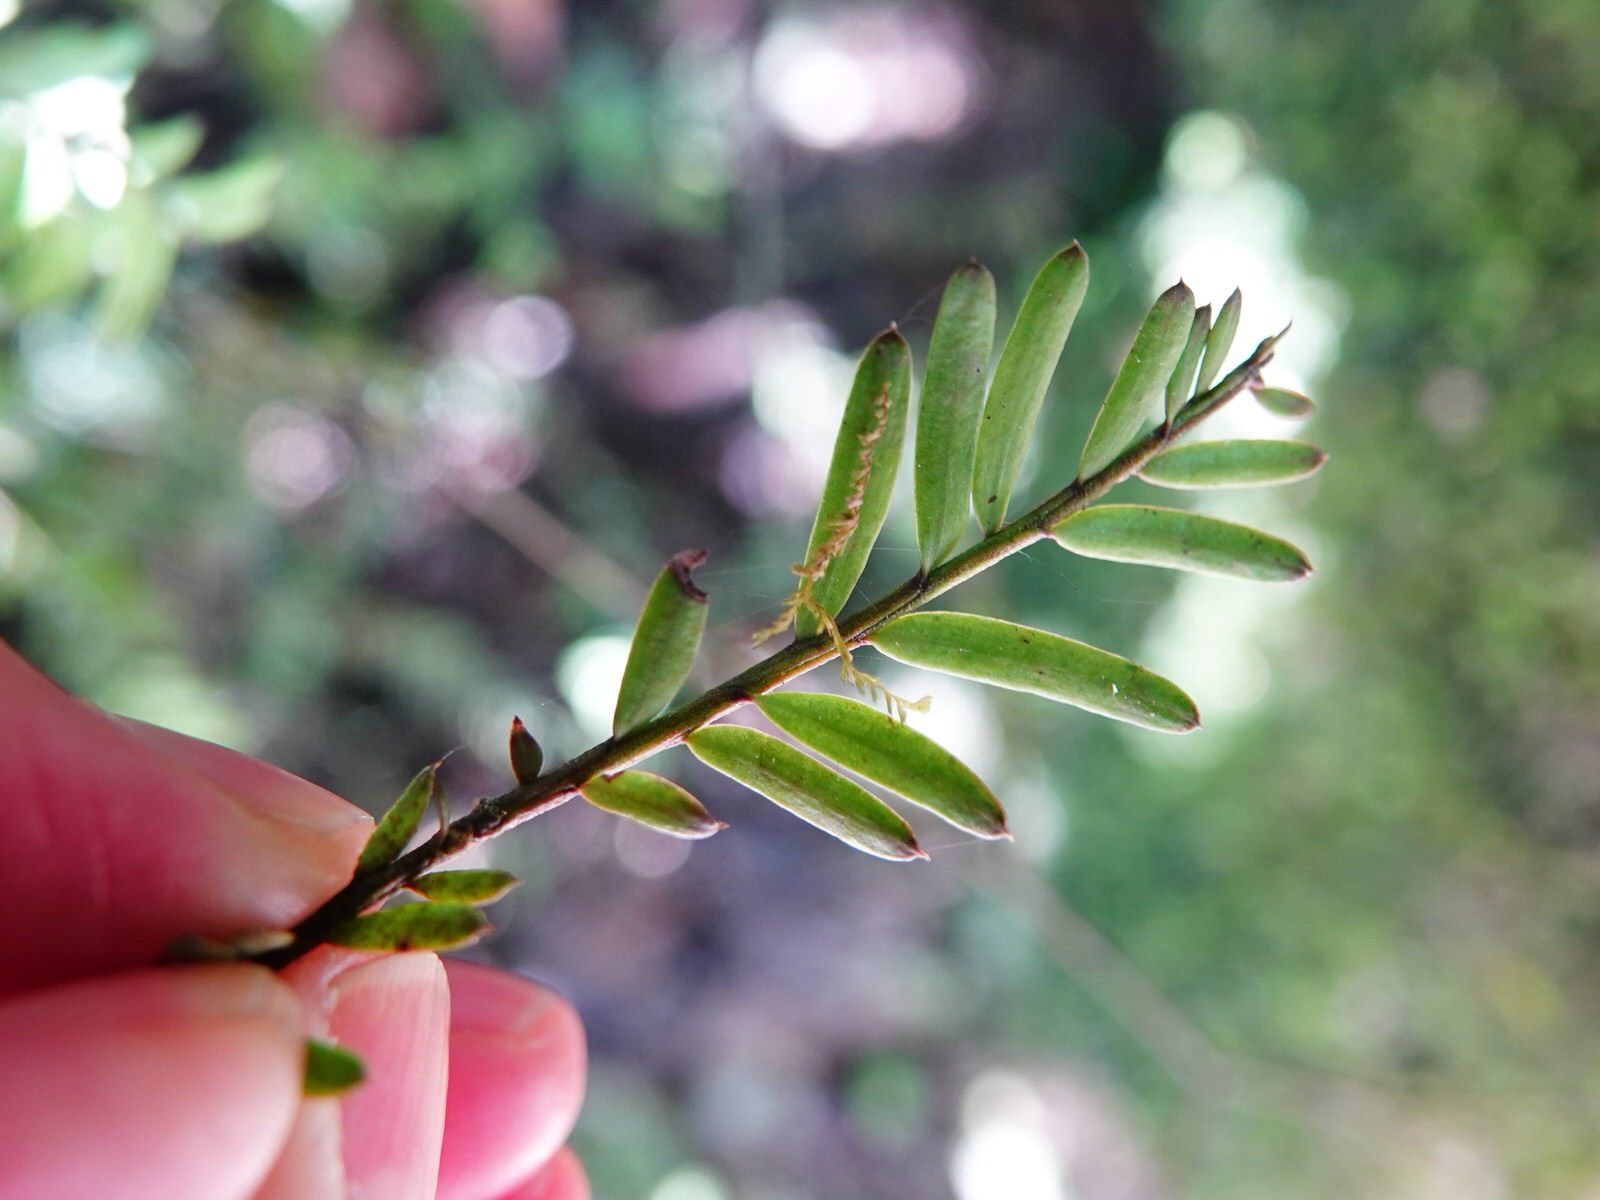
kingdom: Plantae
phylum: Tracheophyta
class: Pinopsida
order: Pinales
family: Podocarpaceae
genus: Prumnopitys
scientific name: Prumnopitys taxifolia
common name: Matai
